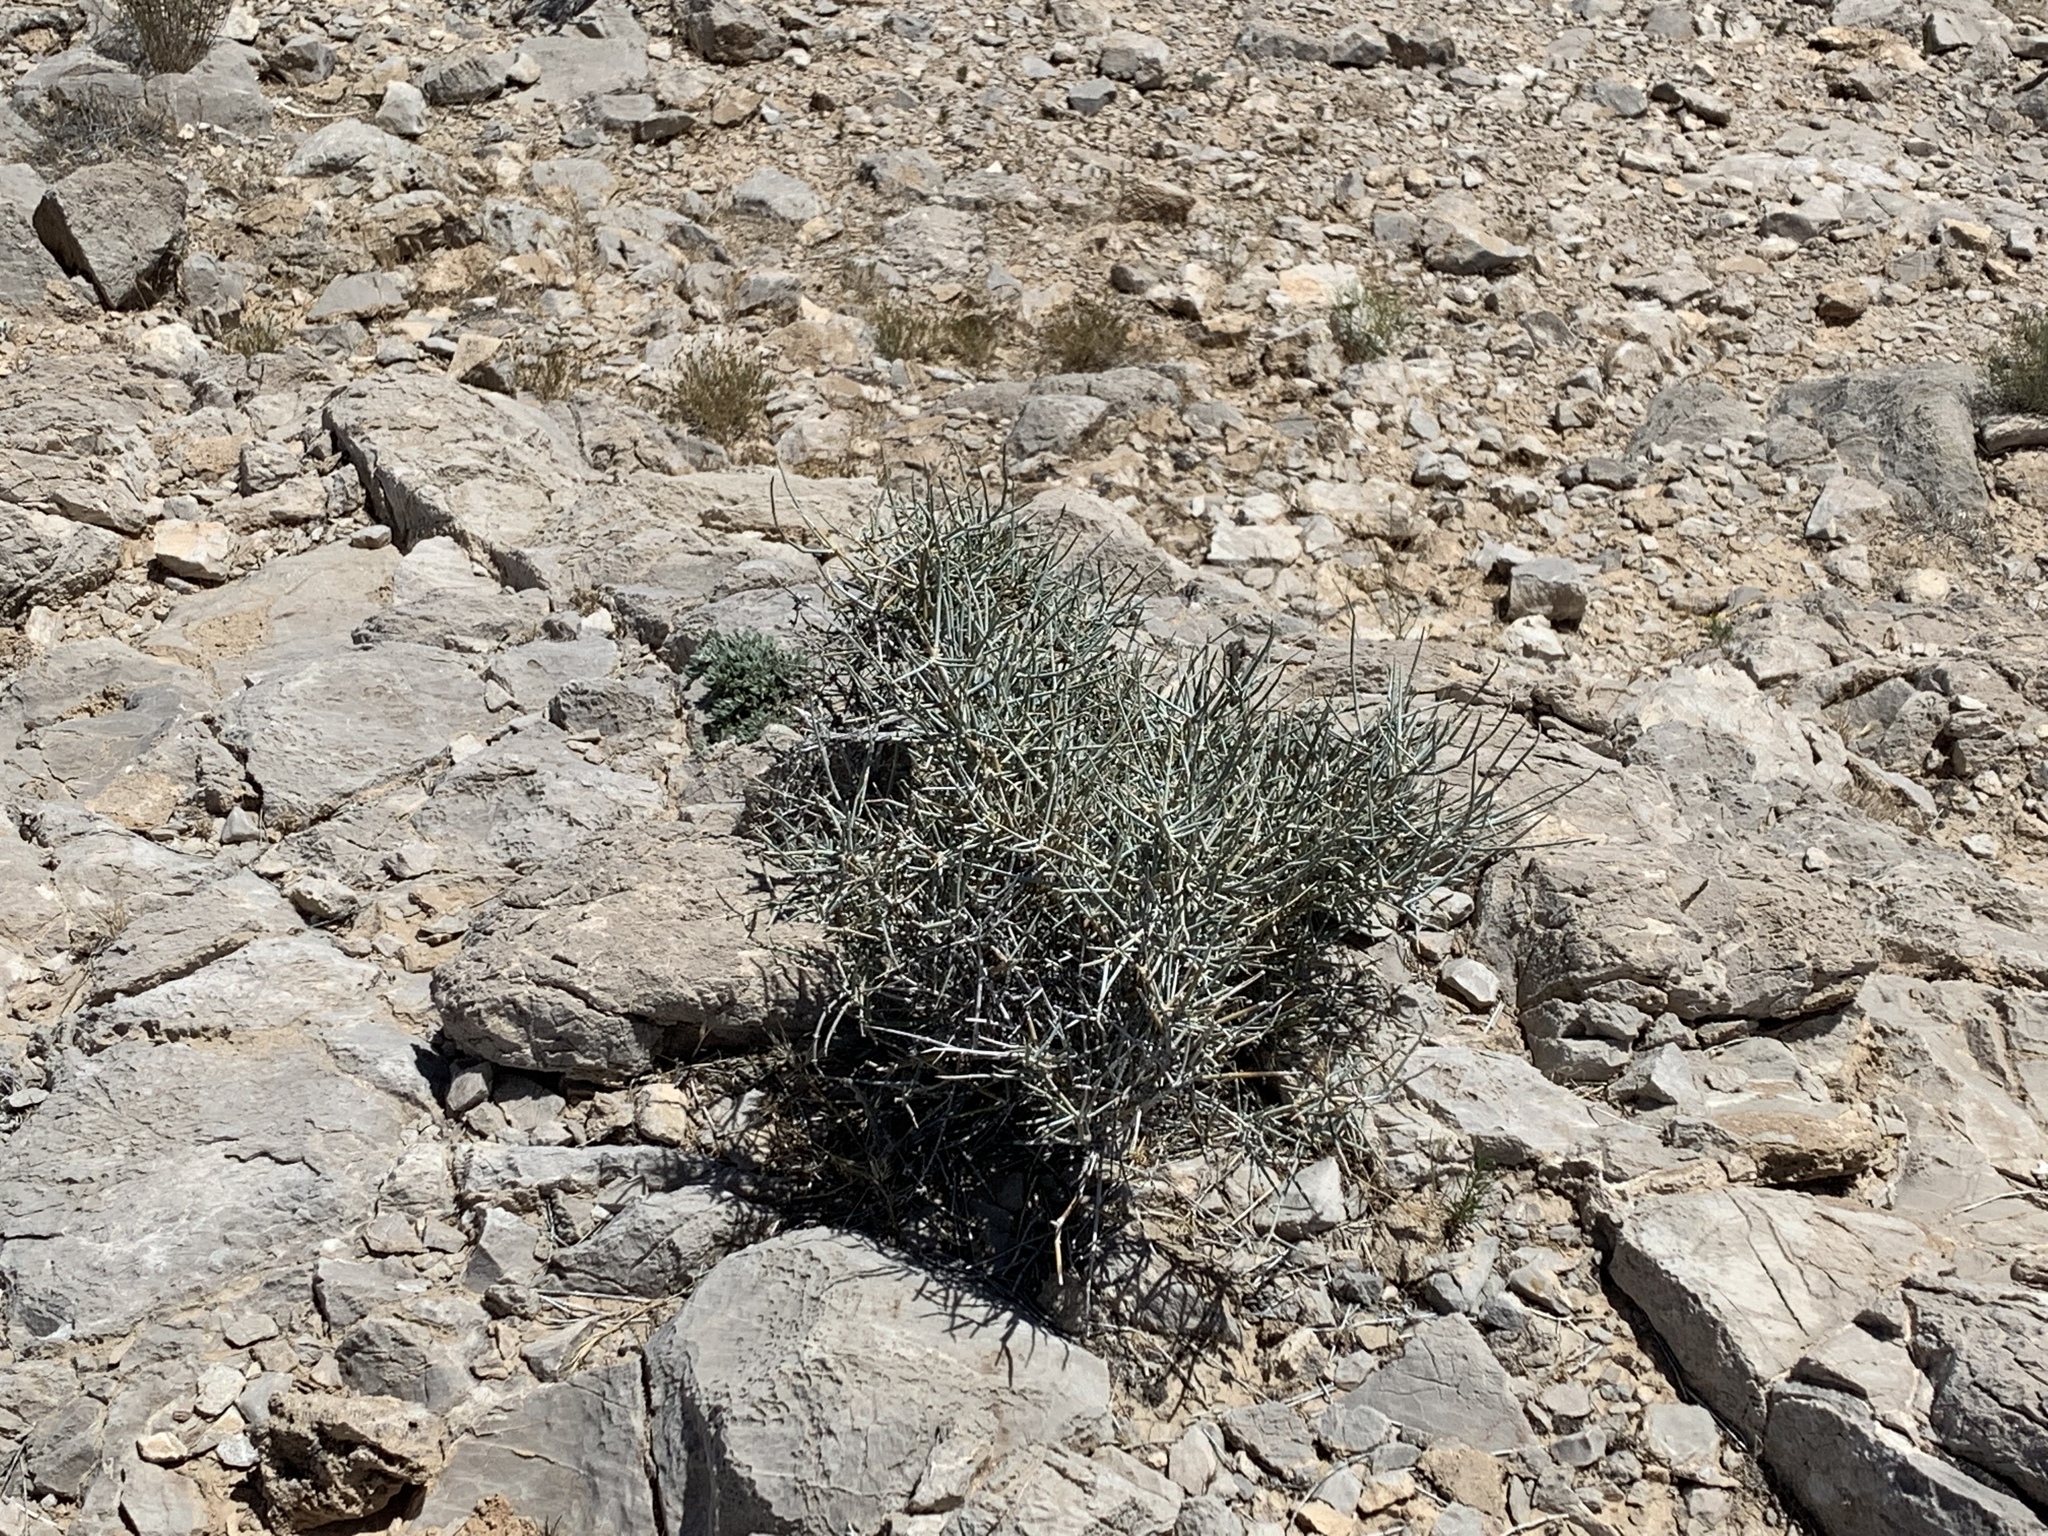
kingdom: Plantae
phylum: Tracheophyta
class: Gnetopsida
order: Ephedrales
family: Ephedraceae
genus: Ephedra
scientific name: Ephedra nevadensis
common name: Gray ephedra
